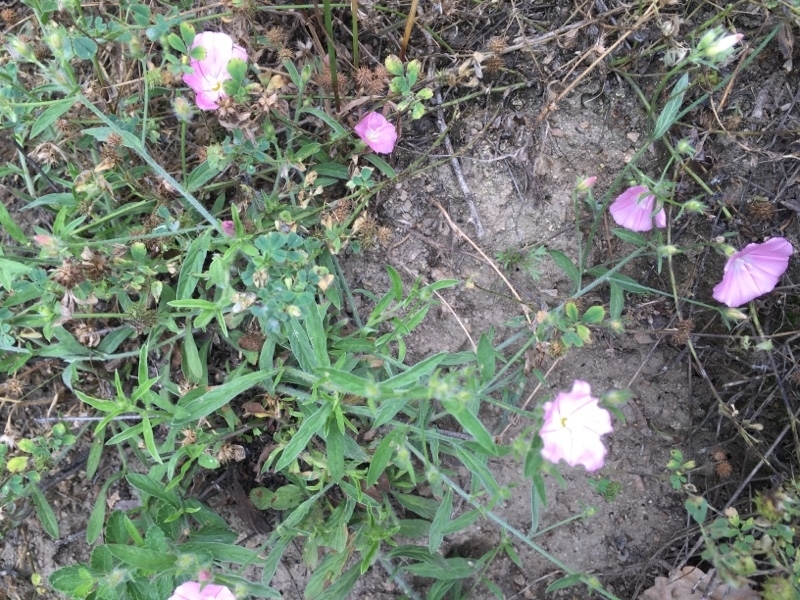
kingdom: Plantae
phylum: Tracheophyta
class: Magnoliopsida
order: Solanales
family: Convolvulaceae
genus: Convolvulus
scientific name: Convolvulus cantabrica
